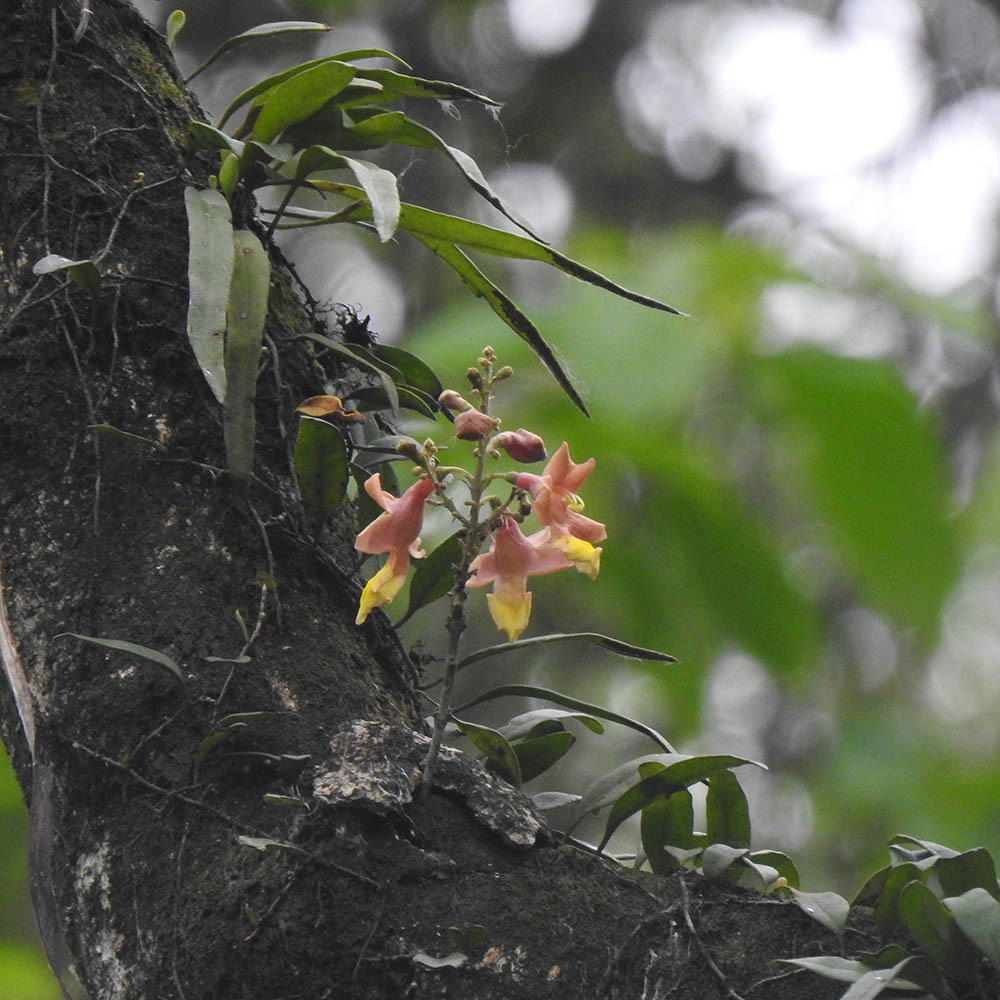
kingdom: Plantae
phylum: Tracheophyta
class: Magnoliopsida
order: Lamiales
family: Lamiaceae
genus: Gmelina
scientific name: Gmelina arborea
